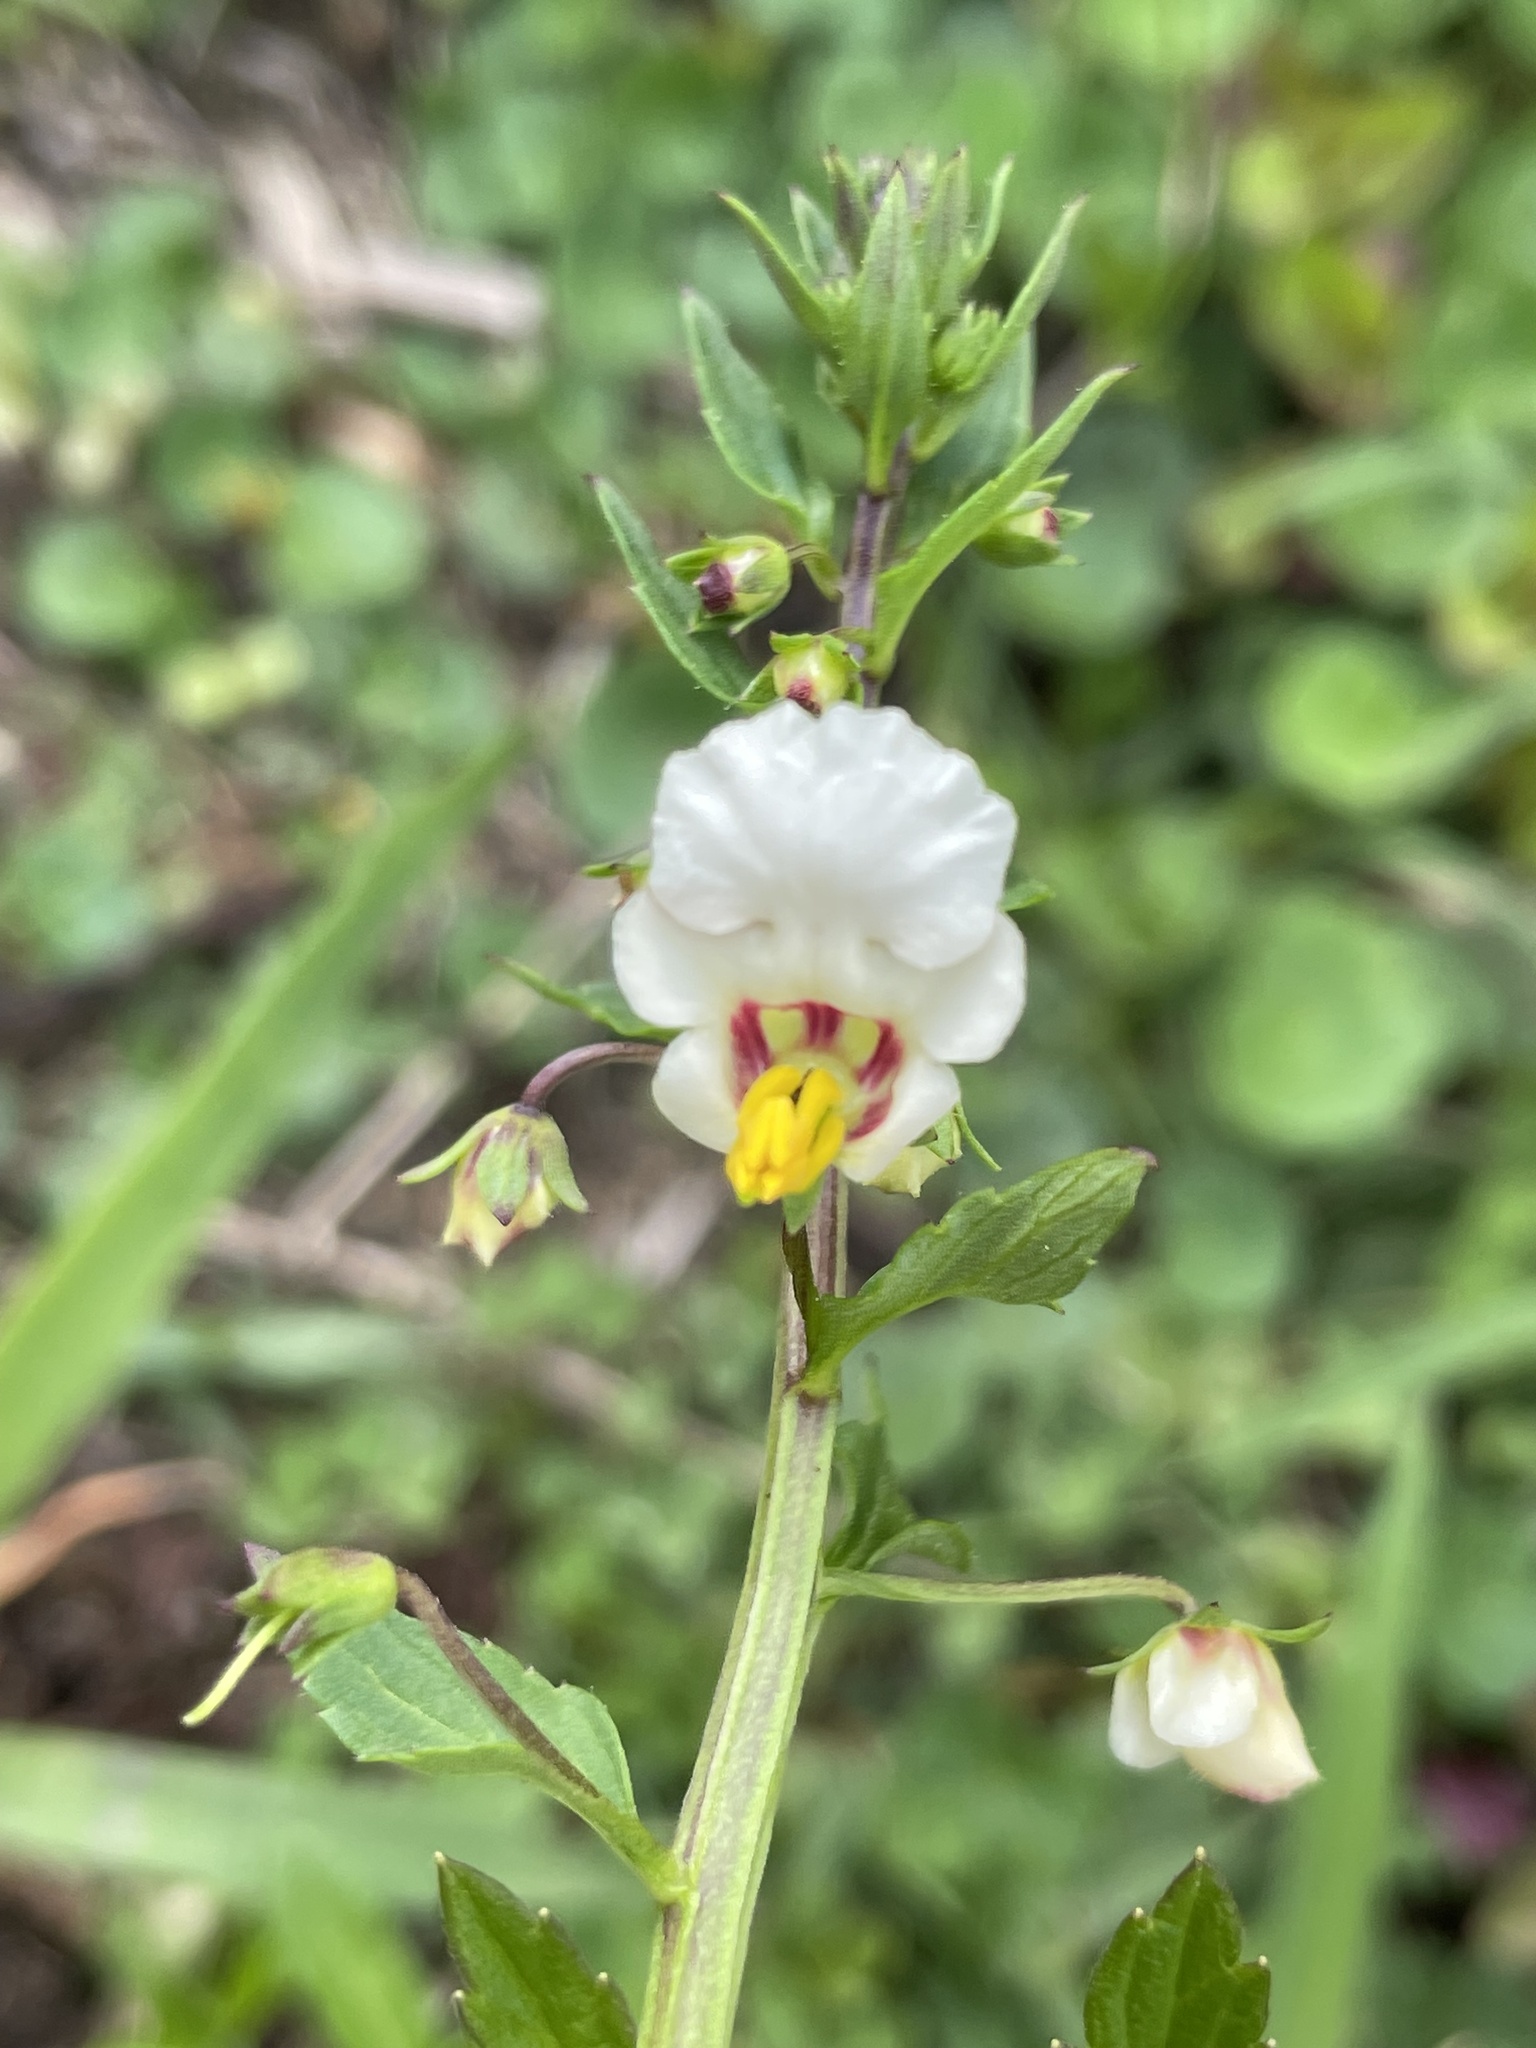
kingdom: Plantae
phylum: Tracheophyta
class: Magnoliopsida
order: Lamiales
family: Scrophulariaceae
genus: Alonsoa
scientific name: Alonsoa meridionalis
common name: Maskflower
